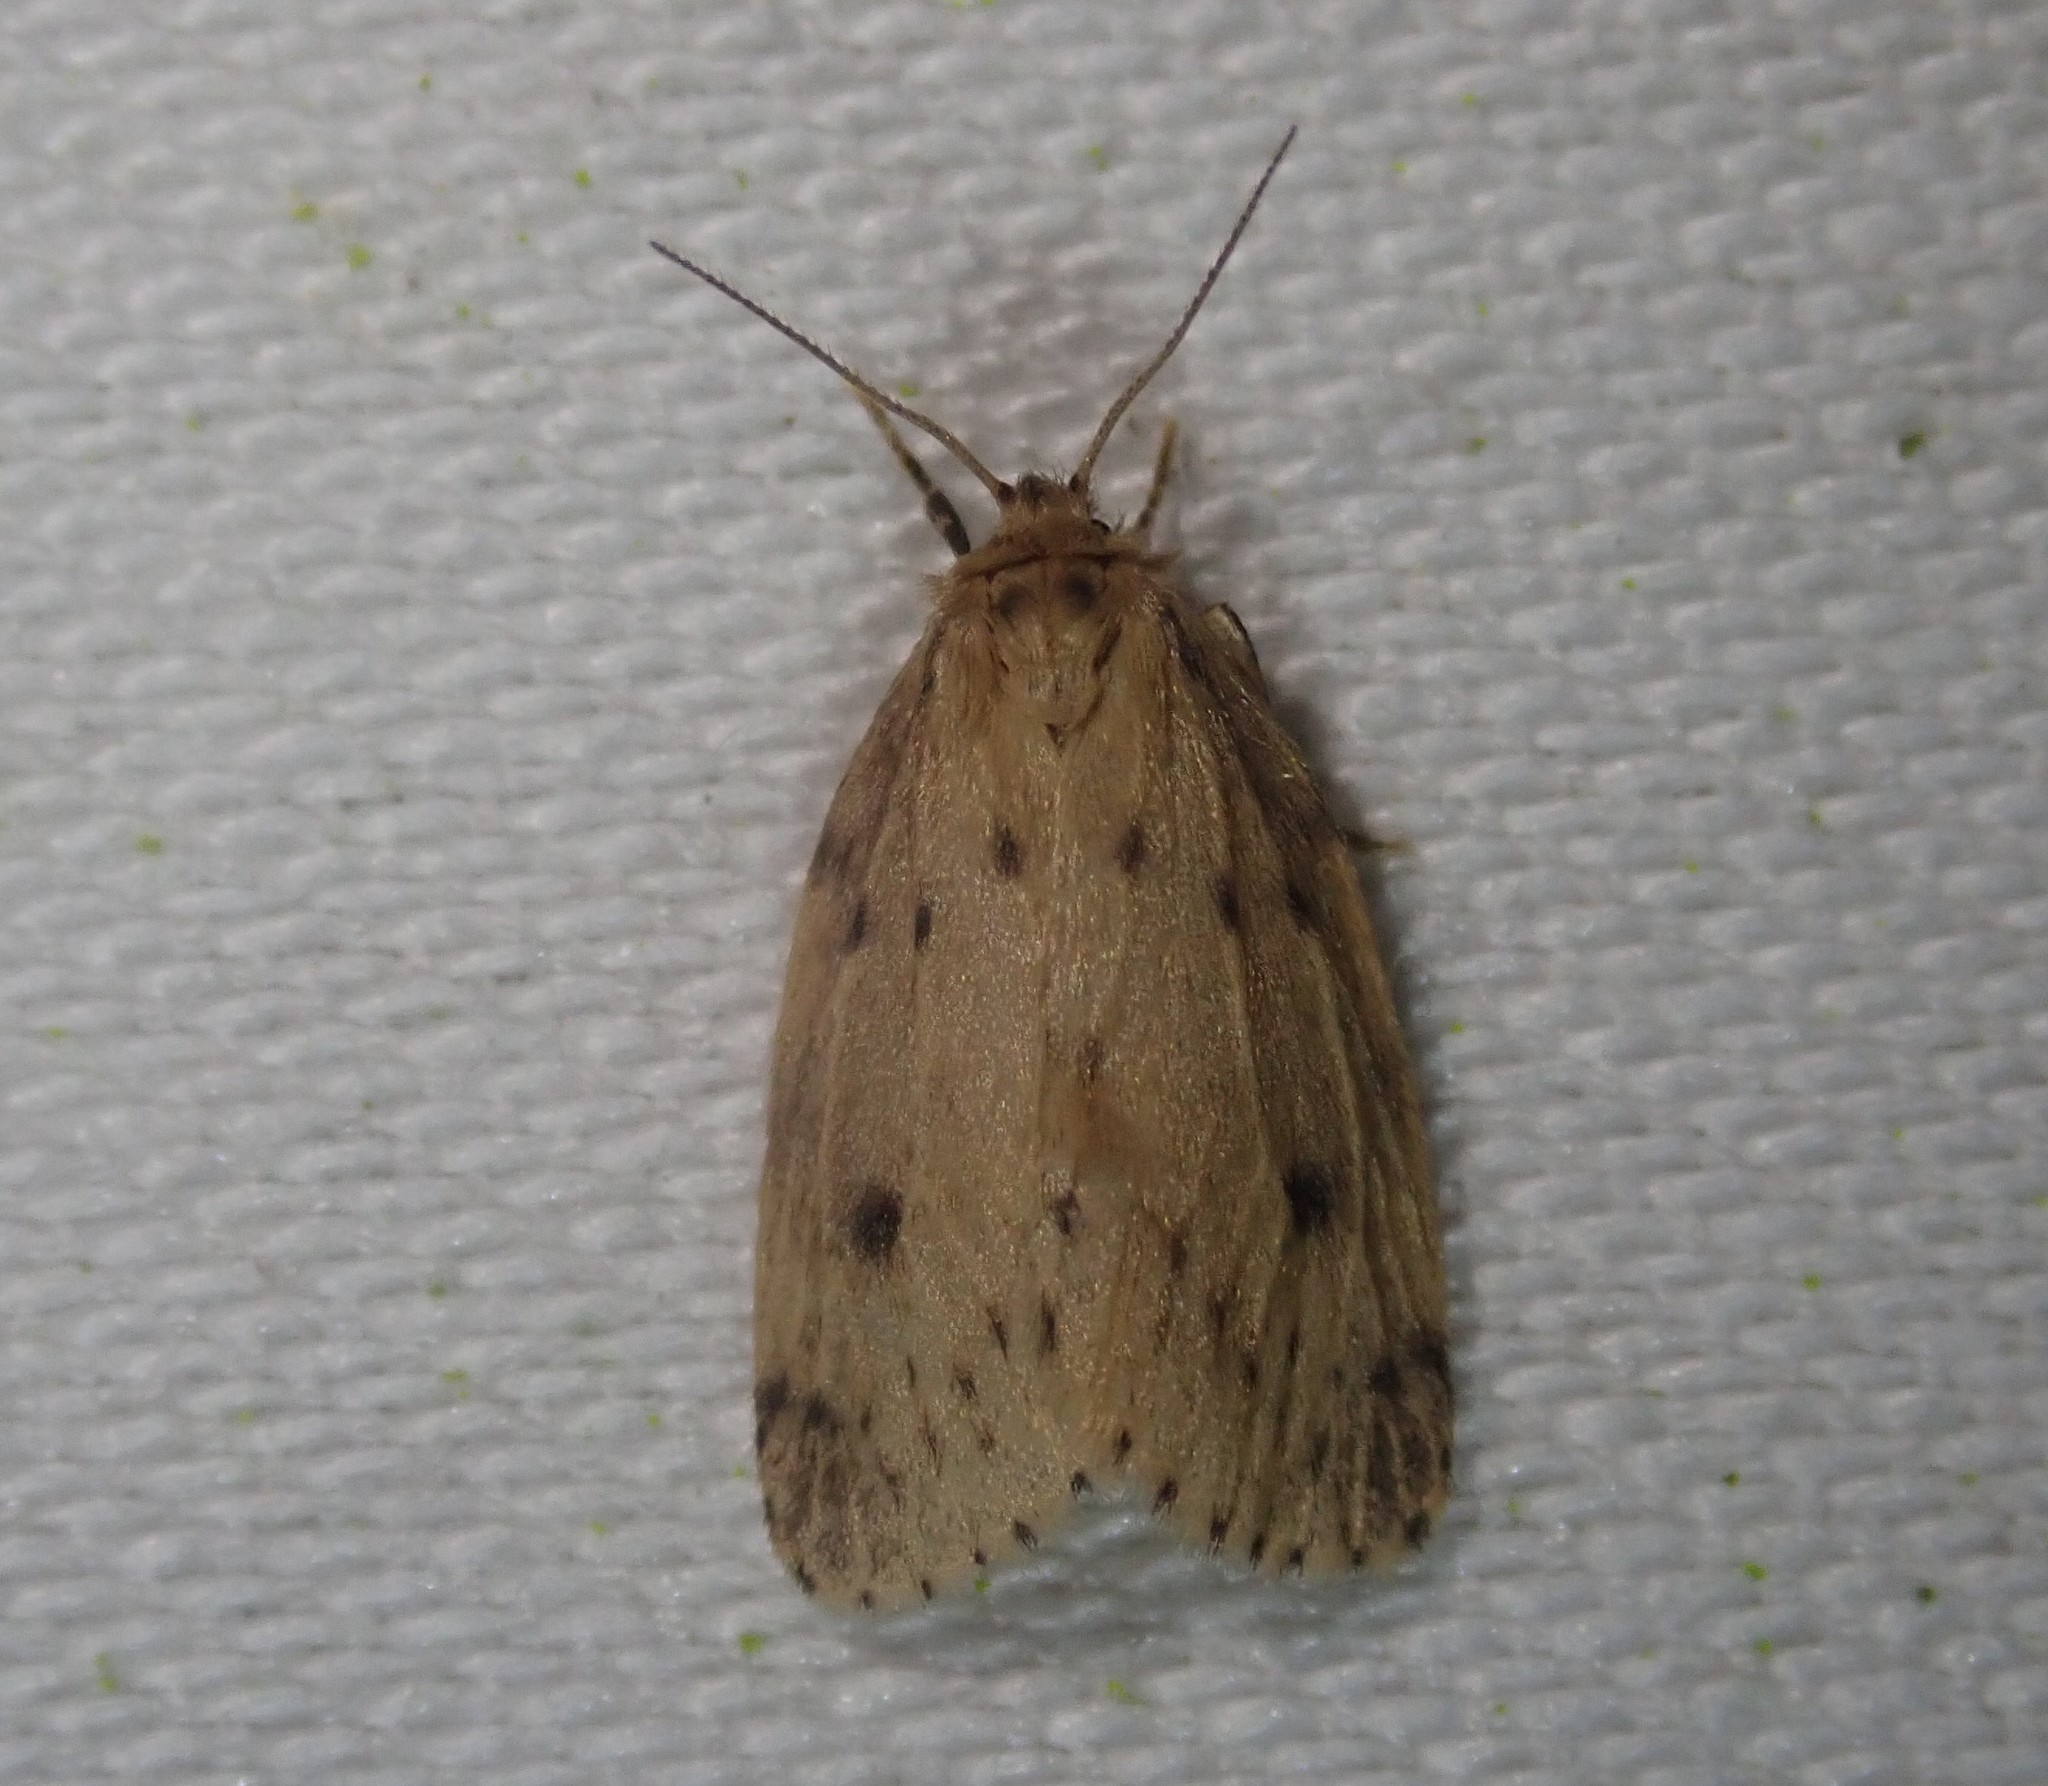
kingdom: Animalia
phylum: Arthropoda
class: Insecta
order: Lepidoptera
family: Erebidae
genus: Thumatha
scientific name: Thumatha senex
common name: Round-winged muslin
